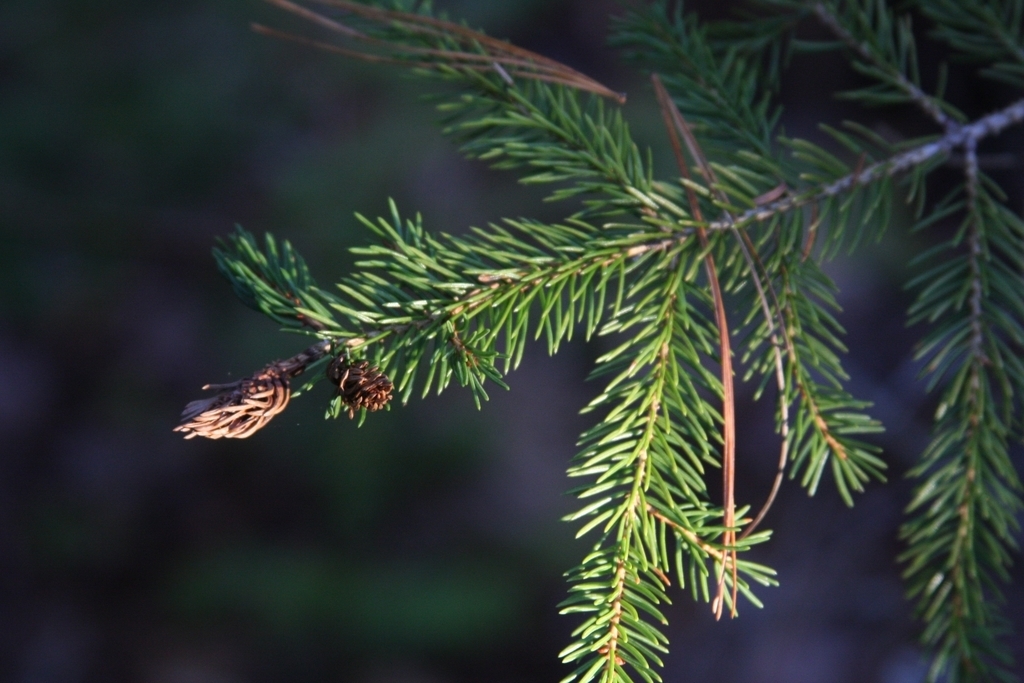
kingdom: Animalia
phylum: Arthropoda
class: Insecta
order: Hemiptera
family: Adelgidae
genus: Adelges
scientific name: Adelges abietis
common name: Eastern spruce gall adelgid
